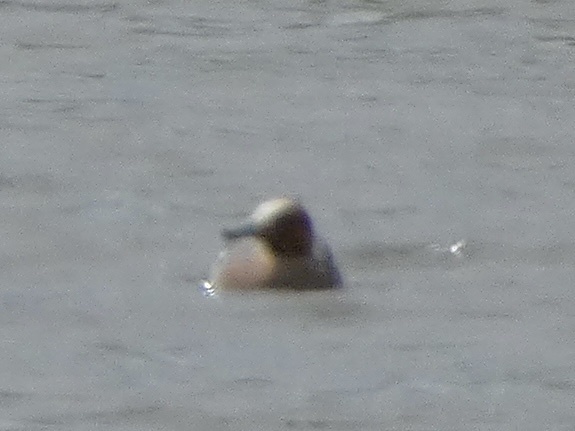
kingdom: Animalia
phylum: Chordata
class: Aves
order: Anseriformes
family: Anatidae
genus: Mareca
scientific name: Mareca penelope
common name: Eurasian wigeon
